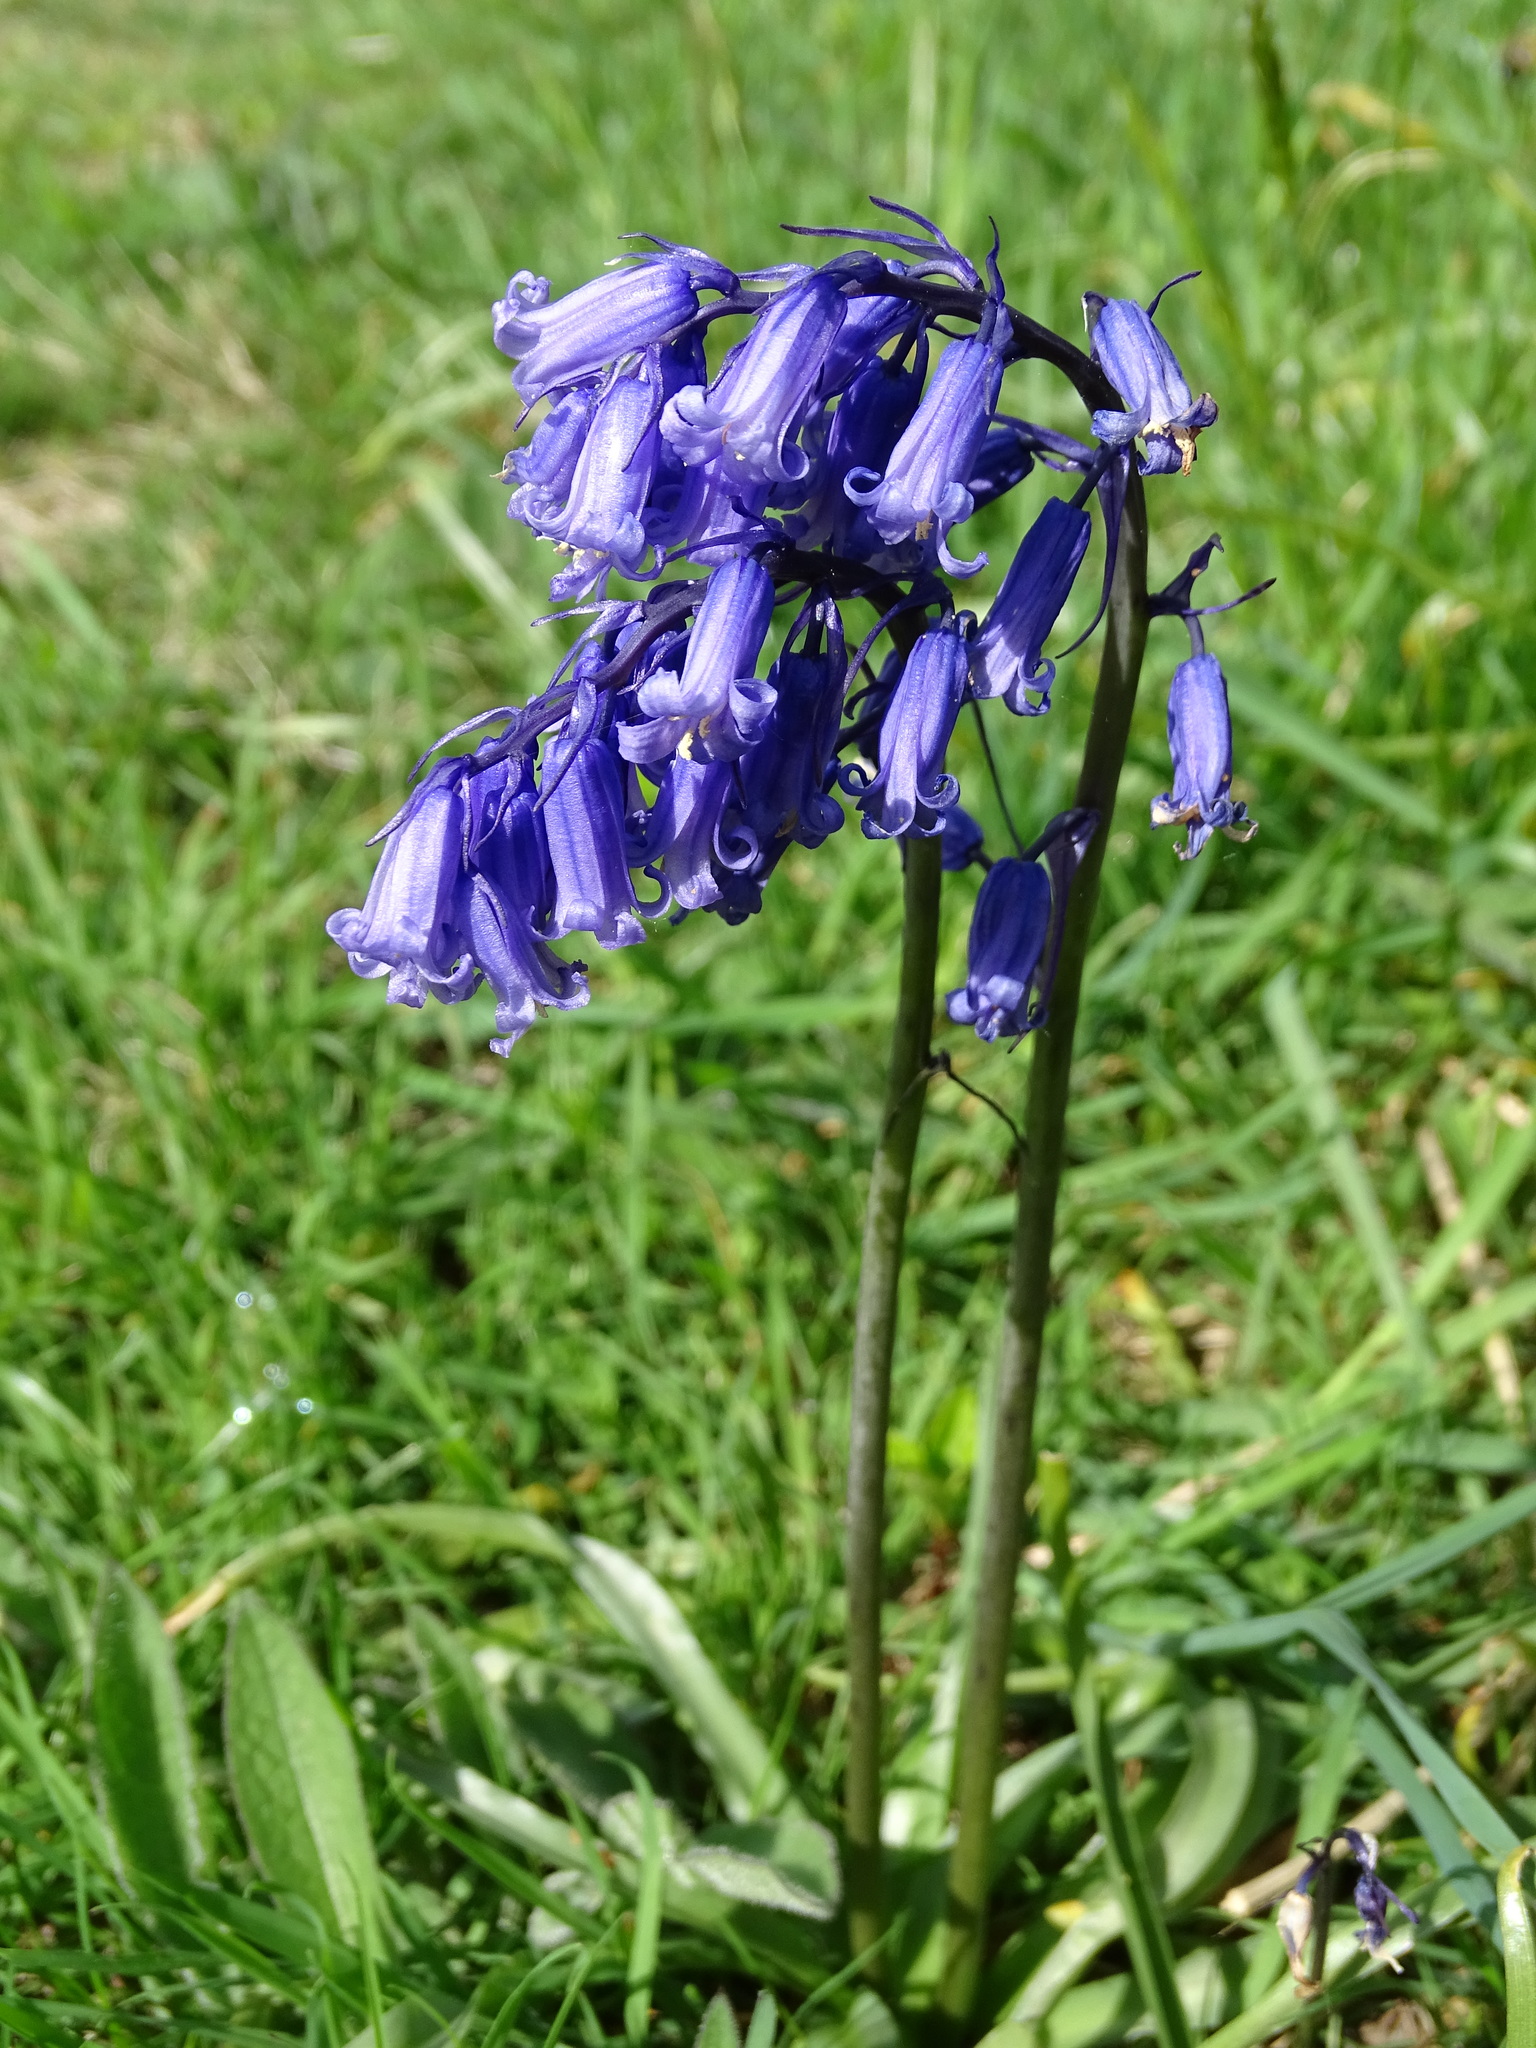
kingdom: Plantae
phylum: Tracheophyta
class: Liliopsida
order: Asparagales
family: Asparagaceae
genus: Hyacinthoides
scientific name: Hyacinthoides non-scripta
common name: Bluebell
